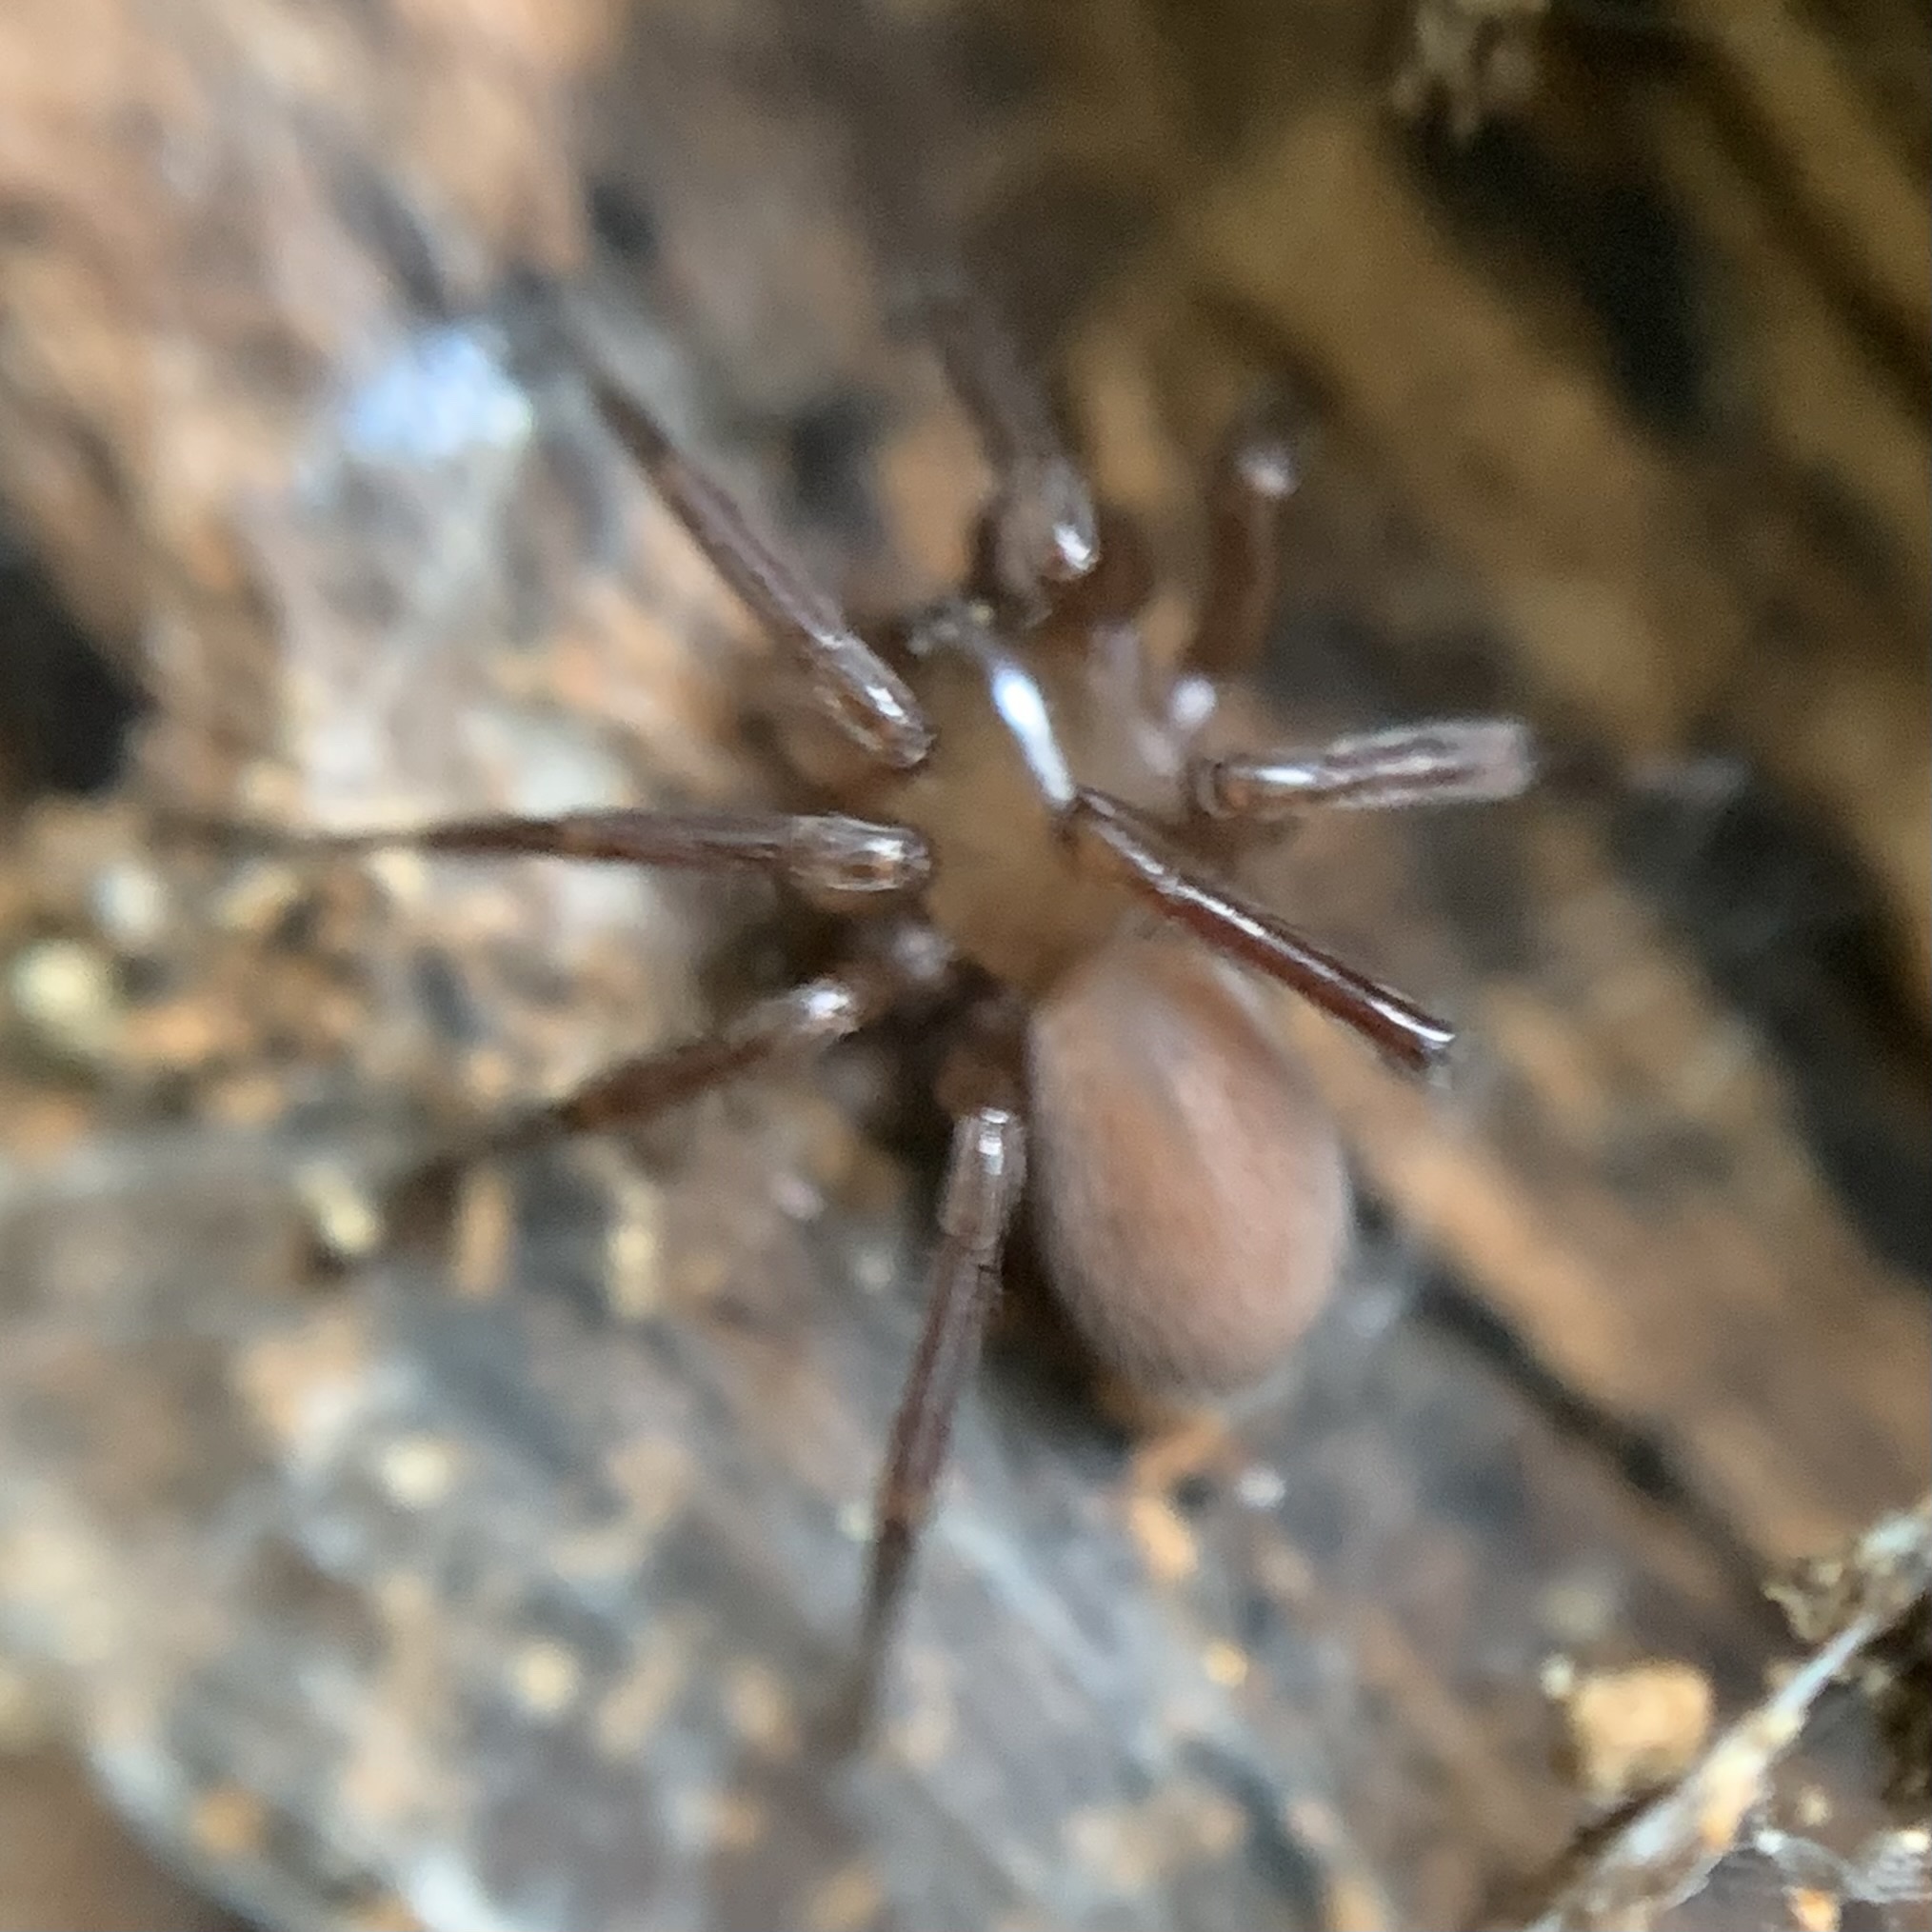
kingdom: Animalia
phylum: Arthropoda
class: Arachnida
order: Araneae
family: Hahniidae
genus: Cicurina
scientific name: Cicurina cicur
